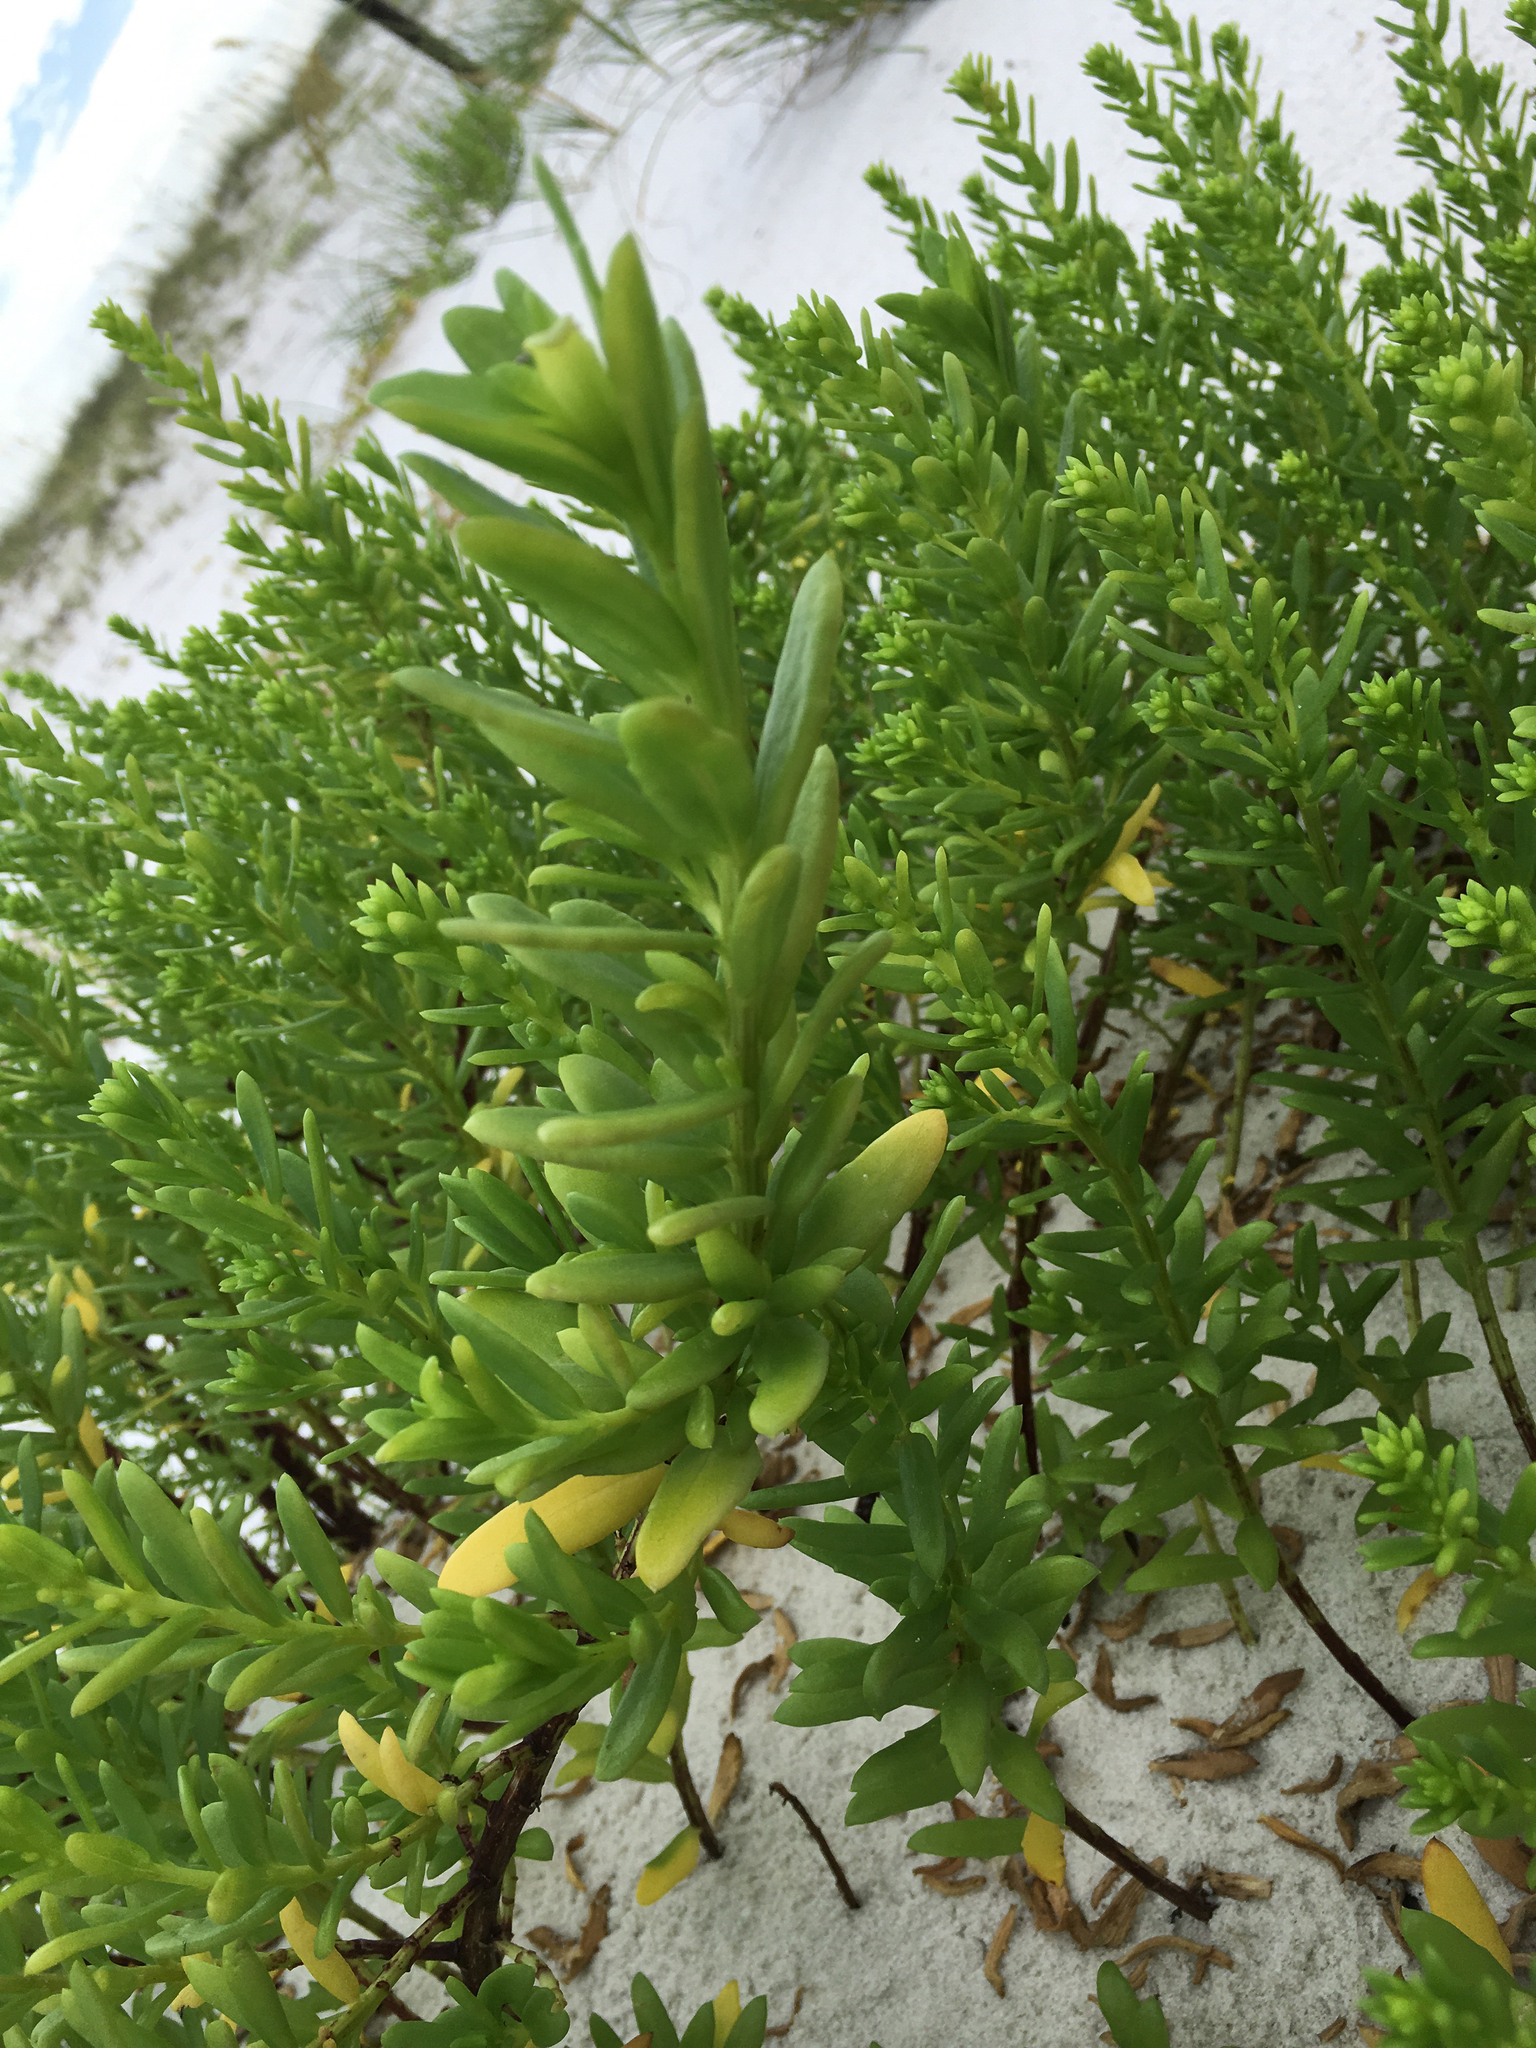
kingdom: Plantae
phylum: Tracheophyta
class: Magnoliopsida
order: Asterales
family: Asteraceae
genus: Iva
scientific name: Iva imbricata
